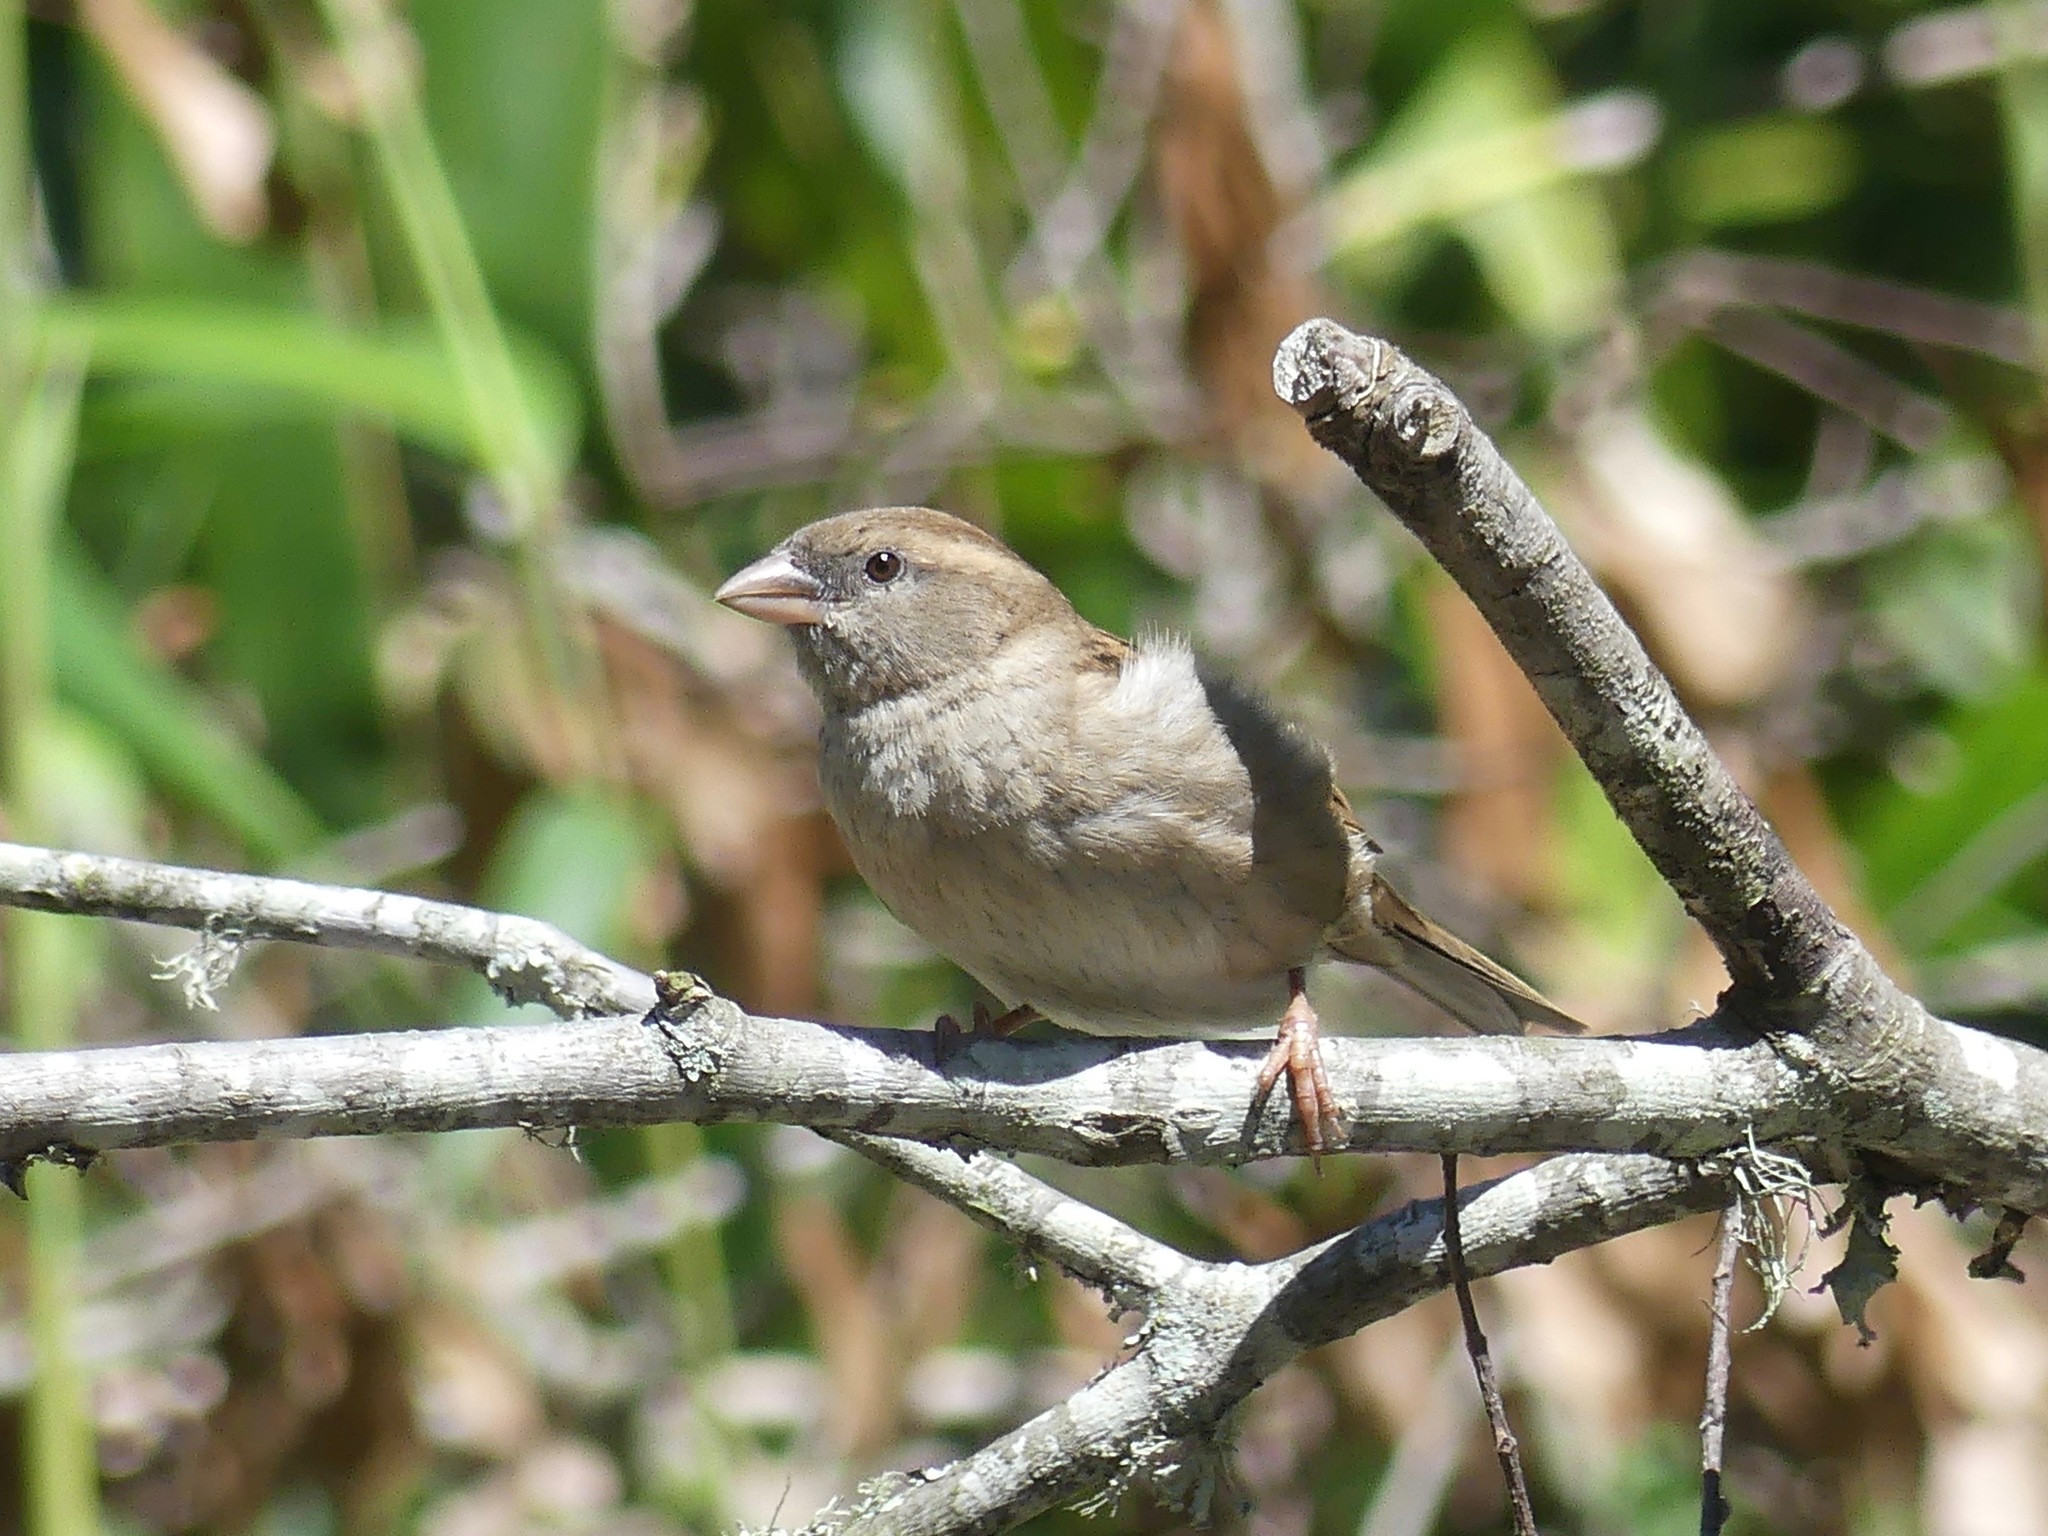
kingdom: Animalia
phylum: Chordata
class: Aves
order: Passeriformes
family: Passeridae
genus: Passer
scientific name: Passer domesticus
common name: House sparrow
